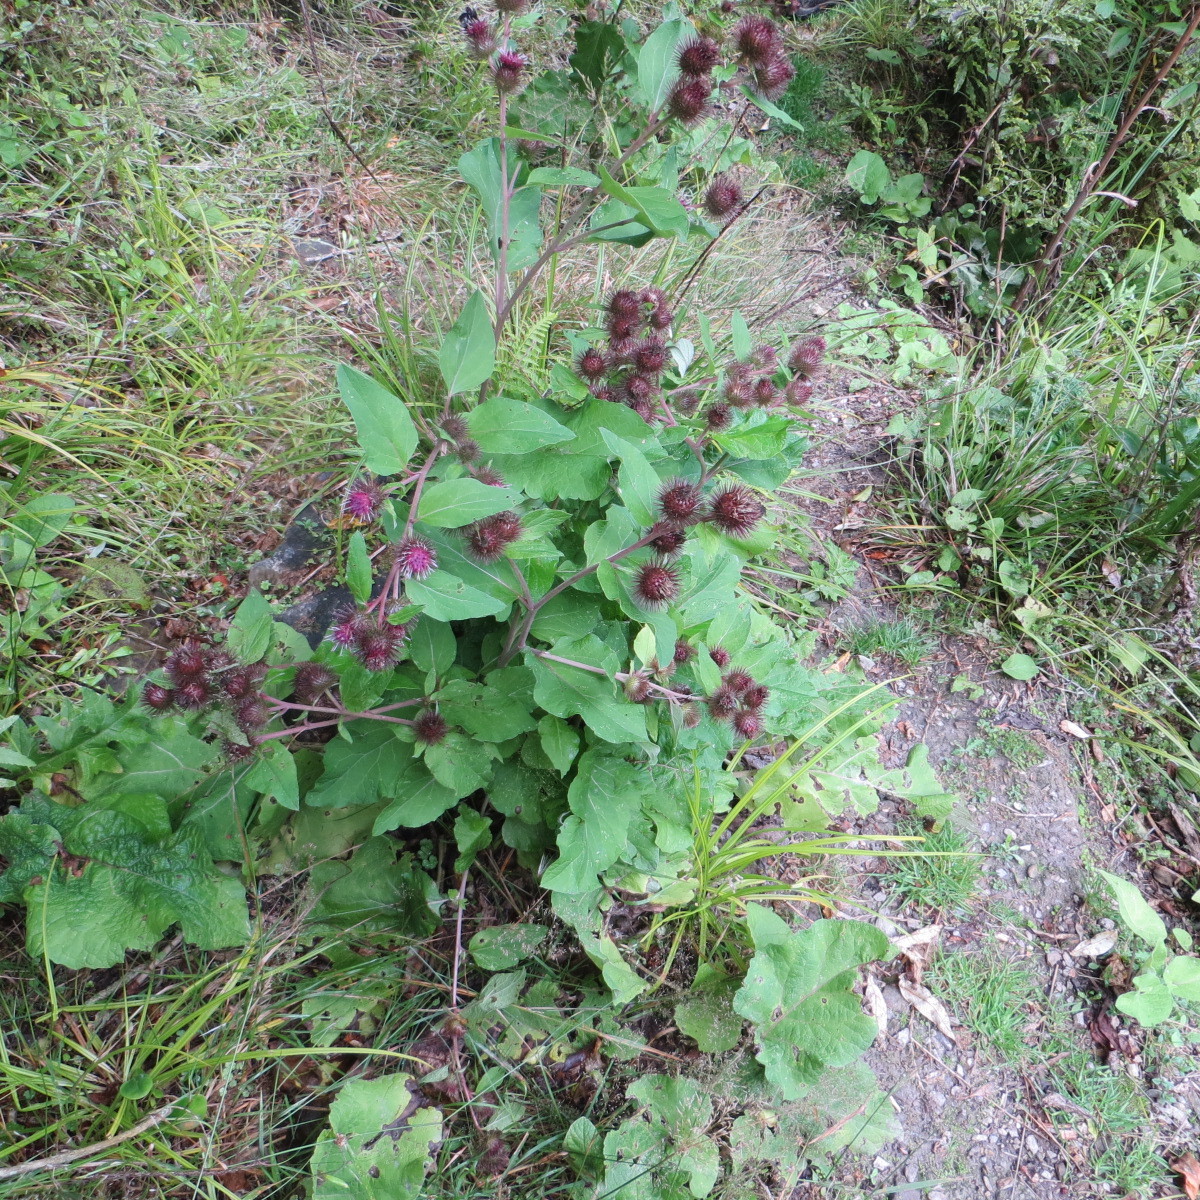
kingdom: Plantae
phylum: Tracheophyta
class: Magnoliopsida
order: Asterales
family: Asteraceae
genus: Arctium
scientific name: Arctium lappa
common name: Greater burdock
